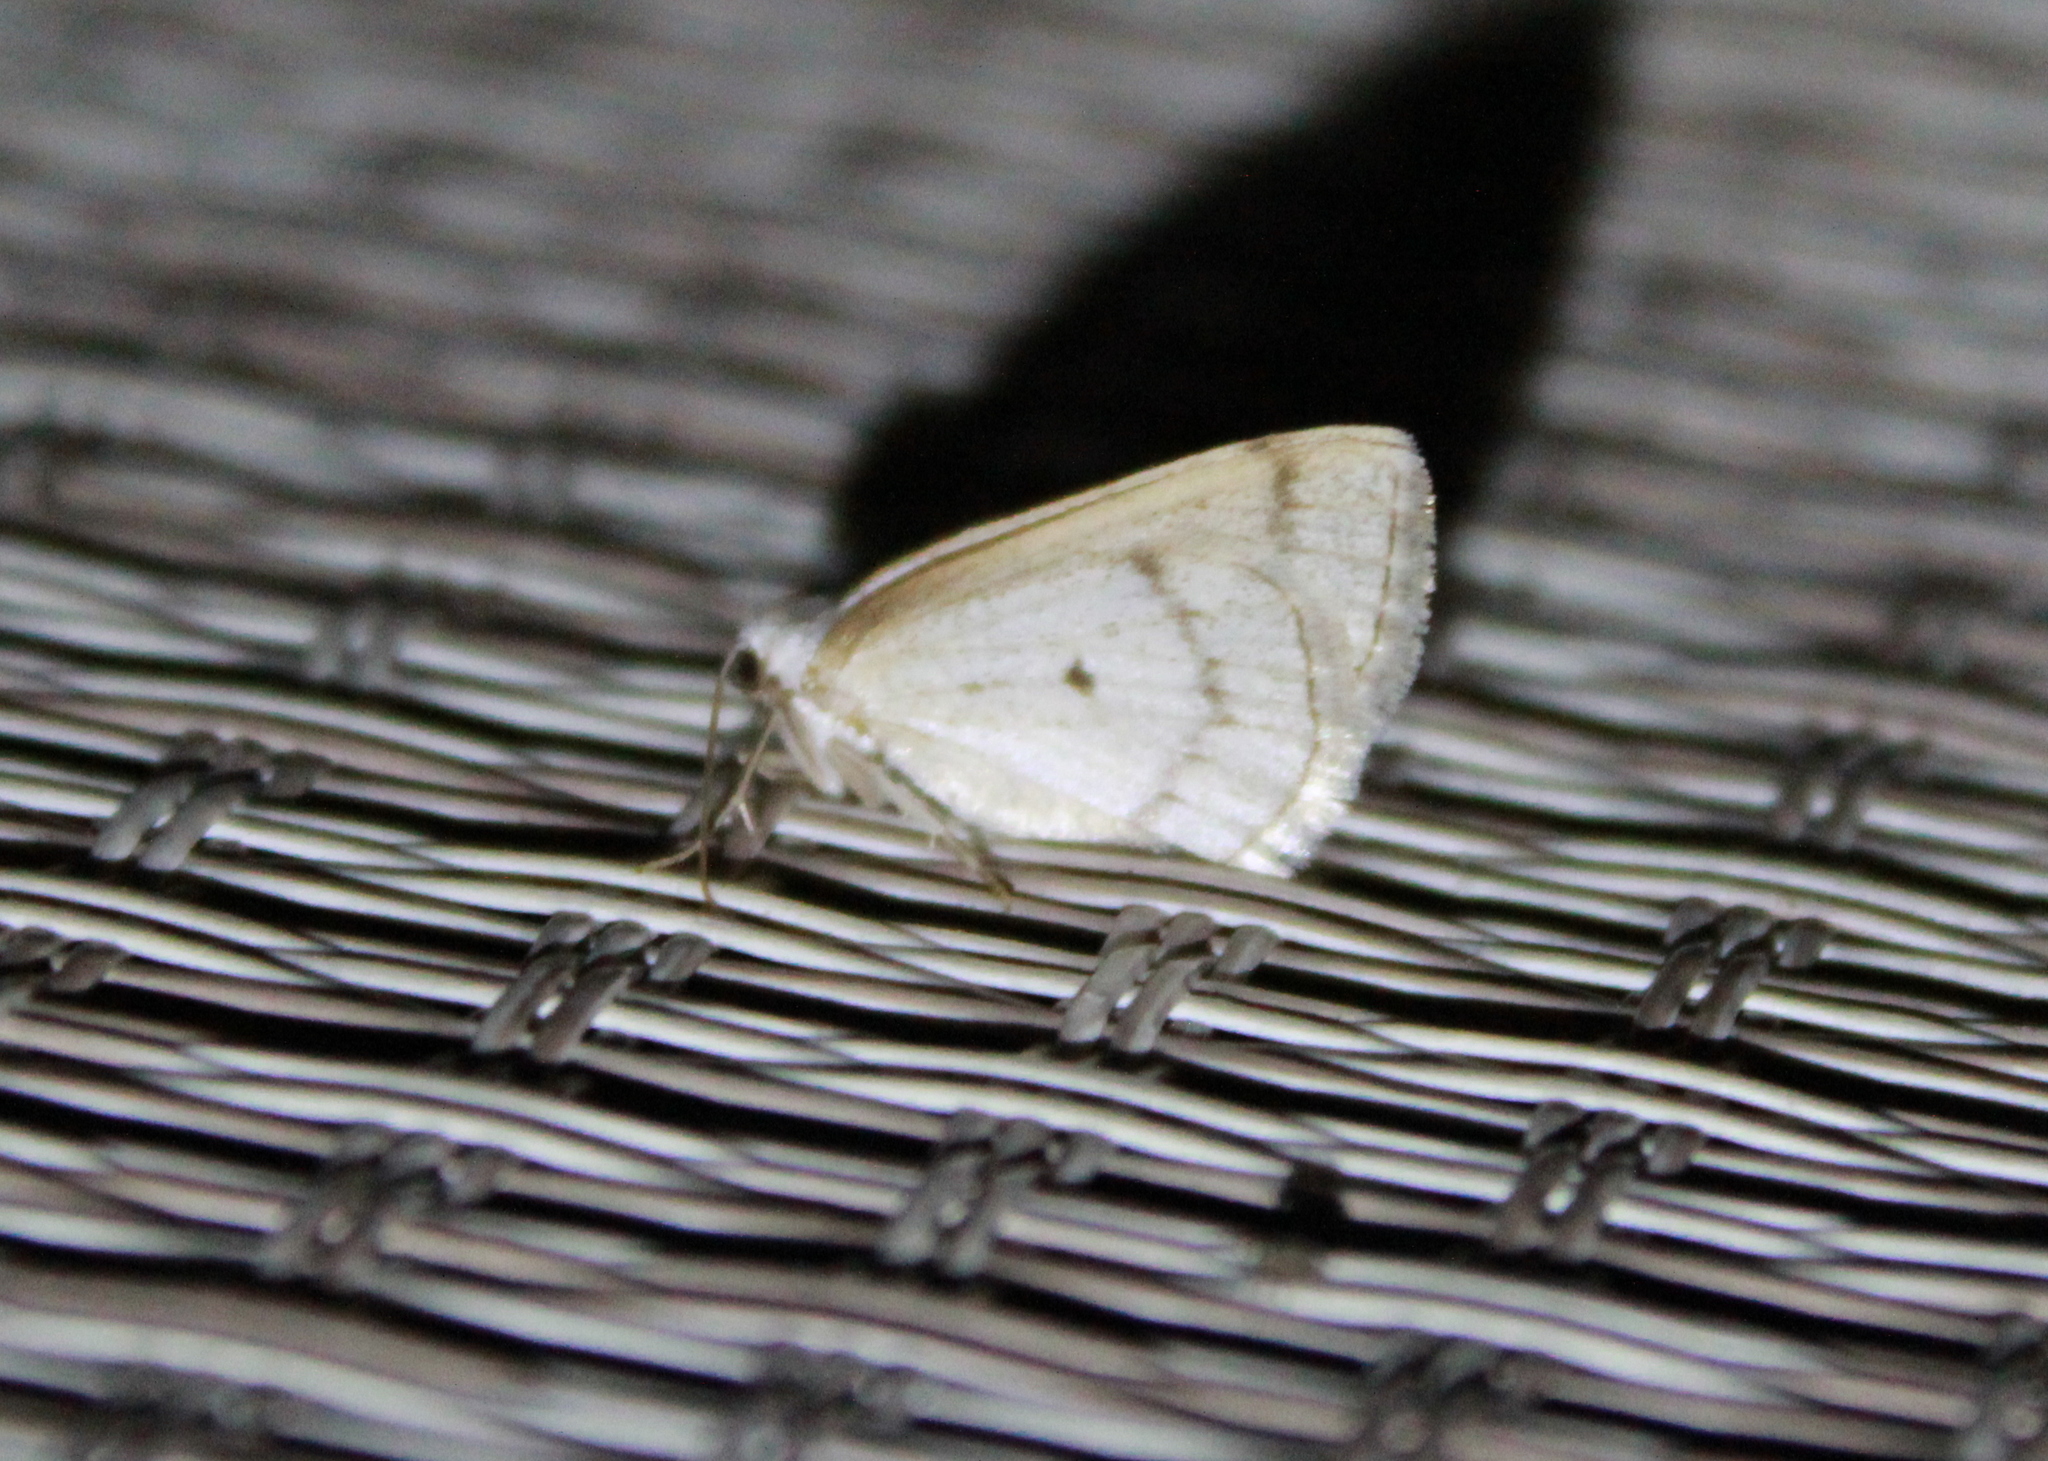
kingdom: Animalia
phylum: Arthropoda
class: Insecta
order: Lepidoptera
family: Geometridae
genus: Lomographa
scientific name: Lomographa glomeraria
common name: Gray spring moth
